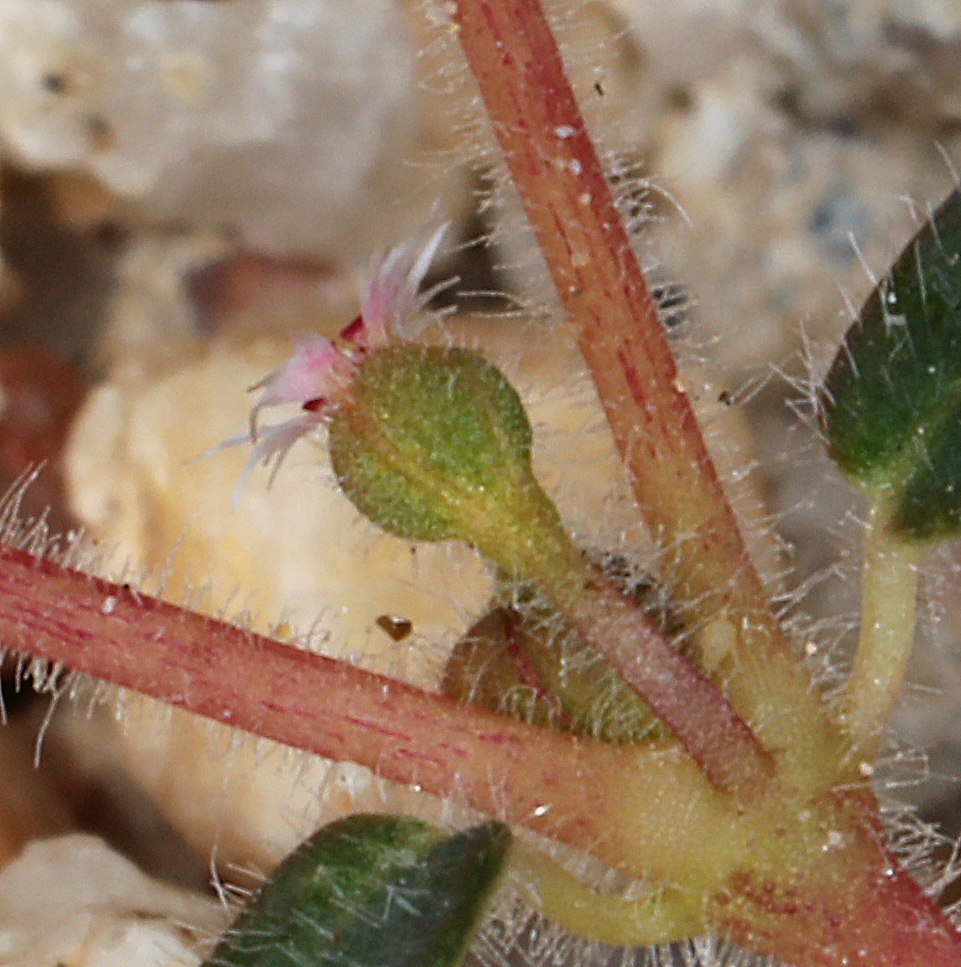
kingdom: Plantae
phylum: Tracheophyta
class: Magnoliopsida
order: Malpighiales
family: Euphorbiaceae
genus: Euphorbia
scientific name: Euphorbia setiloba
